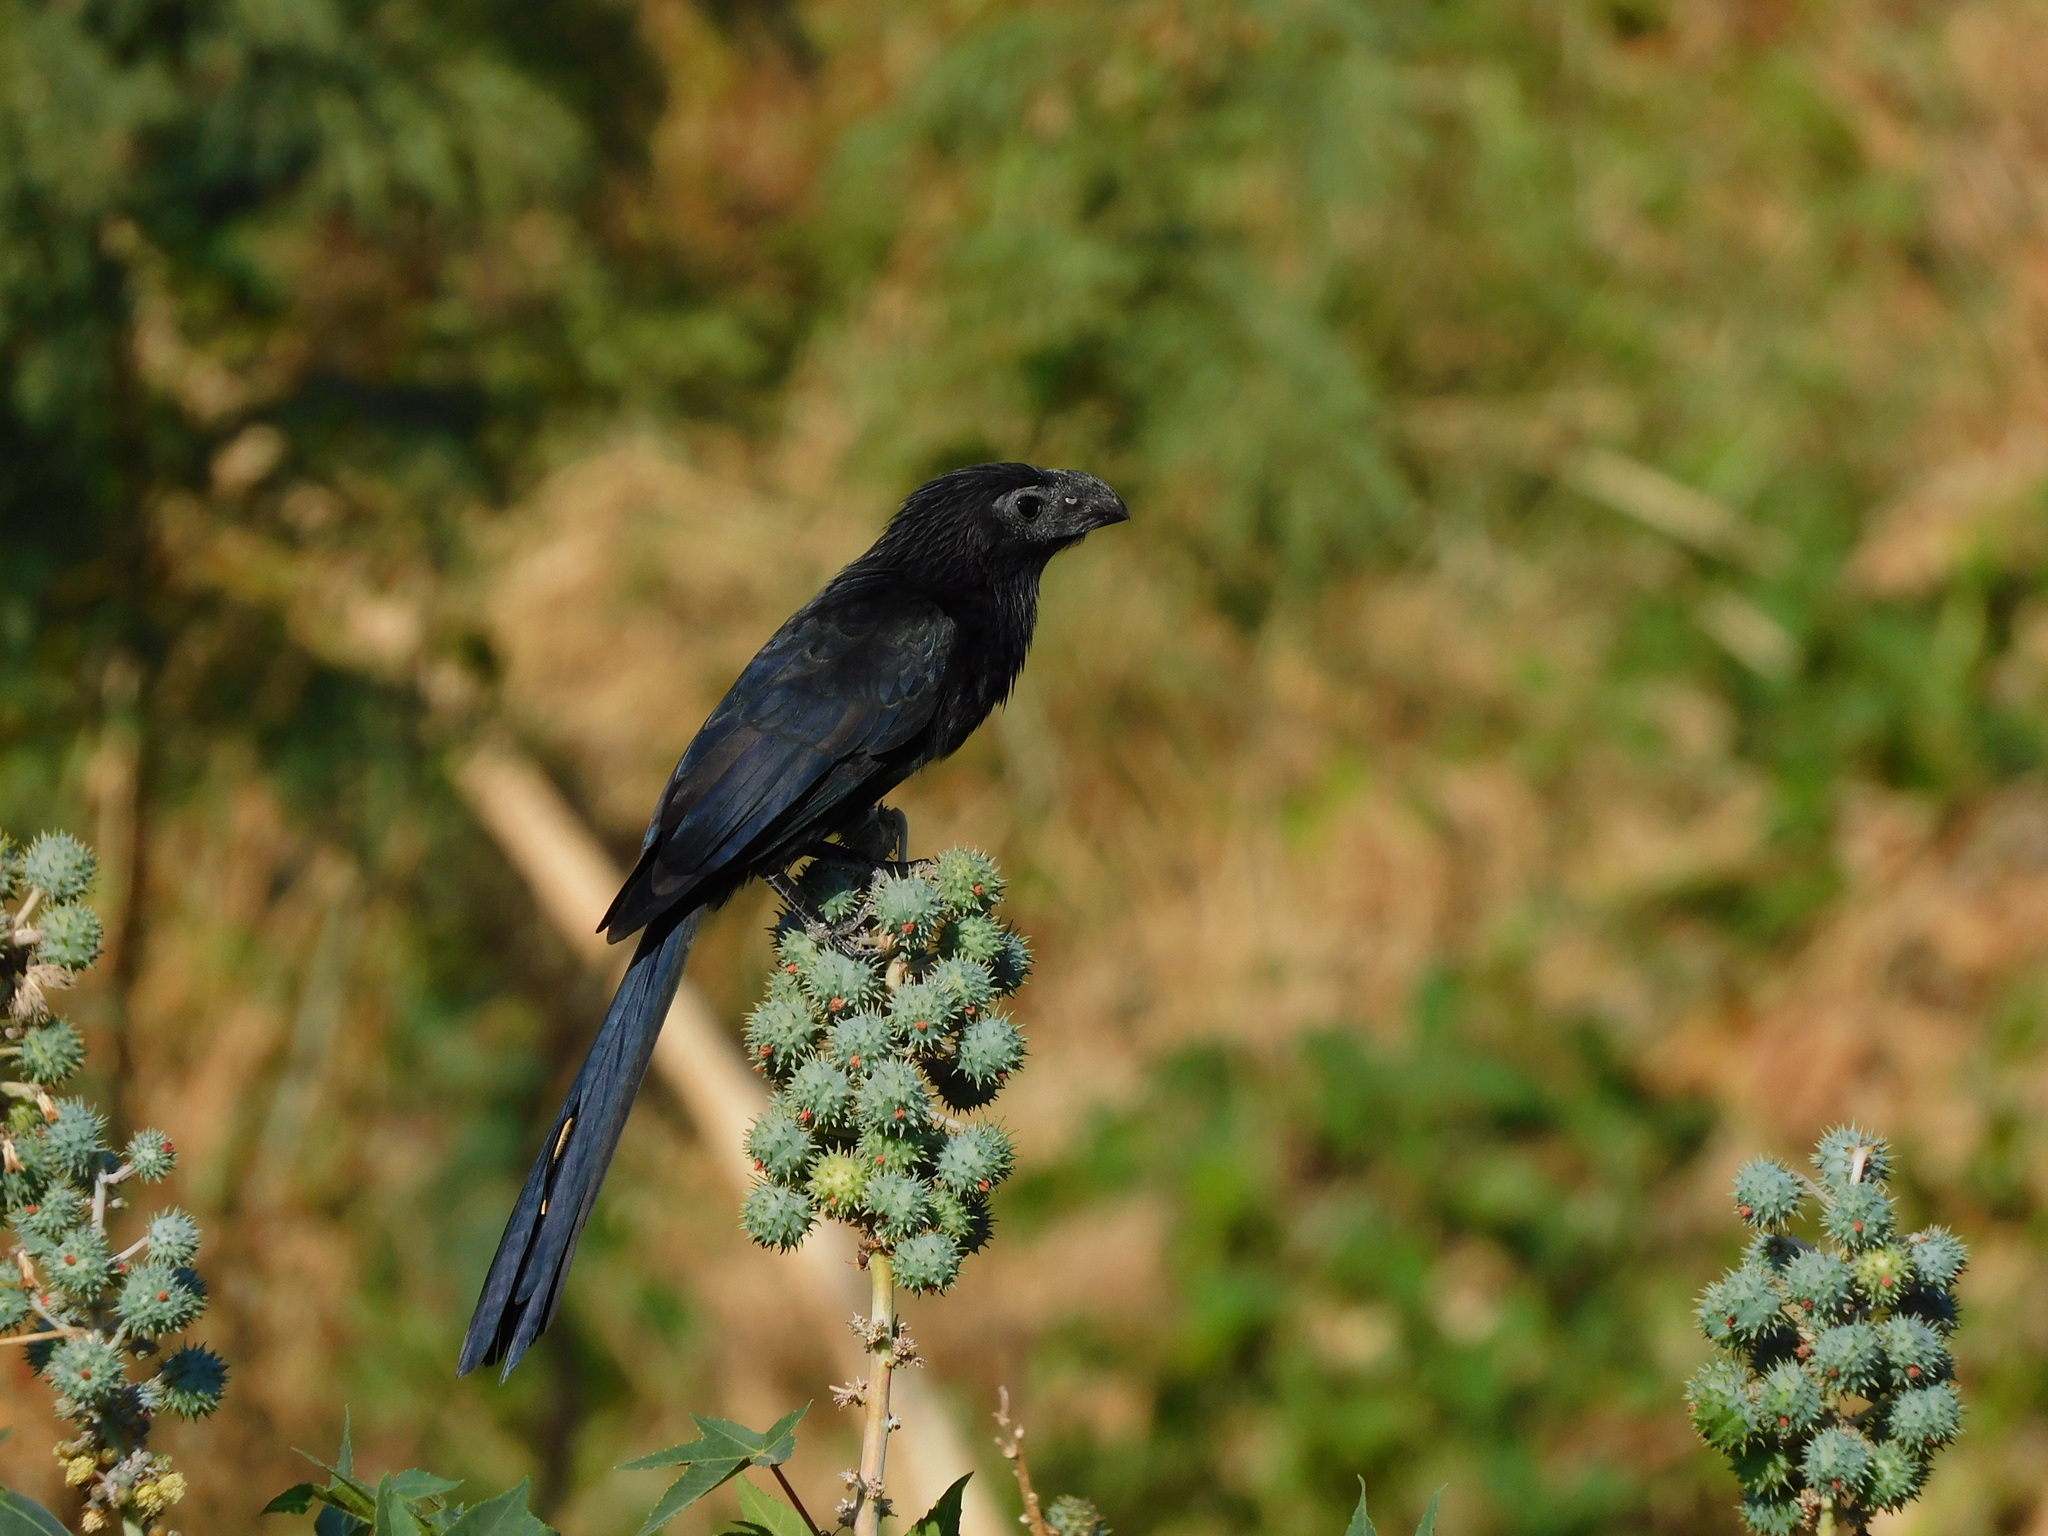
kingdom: Animalia
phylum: Chordata
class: Aves
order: Cuculiformes
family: Cuculidae
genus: Crotophaga
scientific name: Crotophaga sulcirostris
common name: Groove-billed ani
